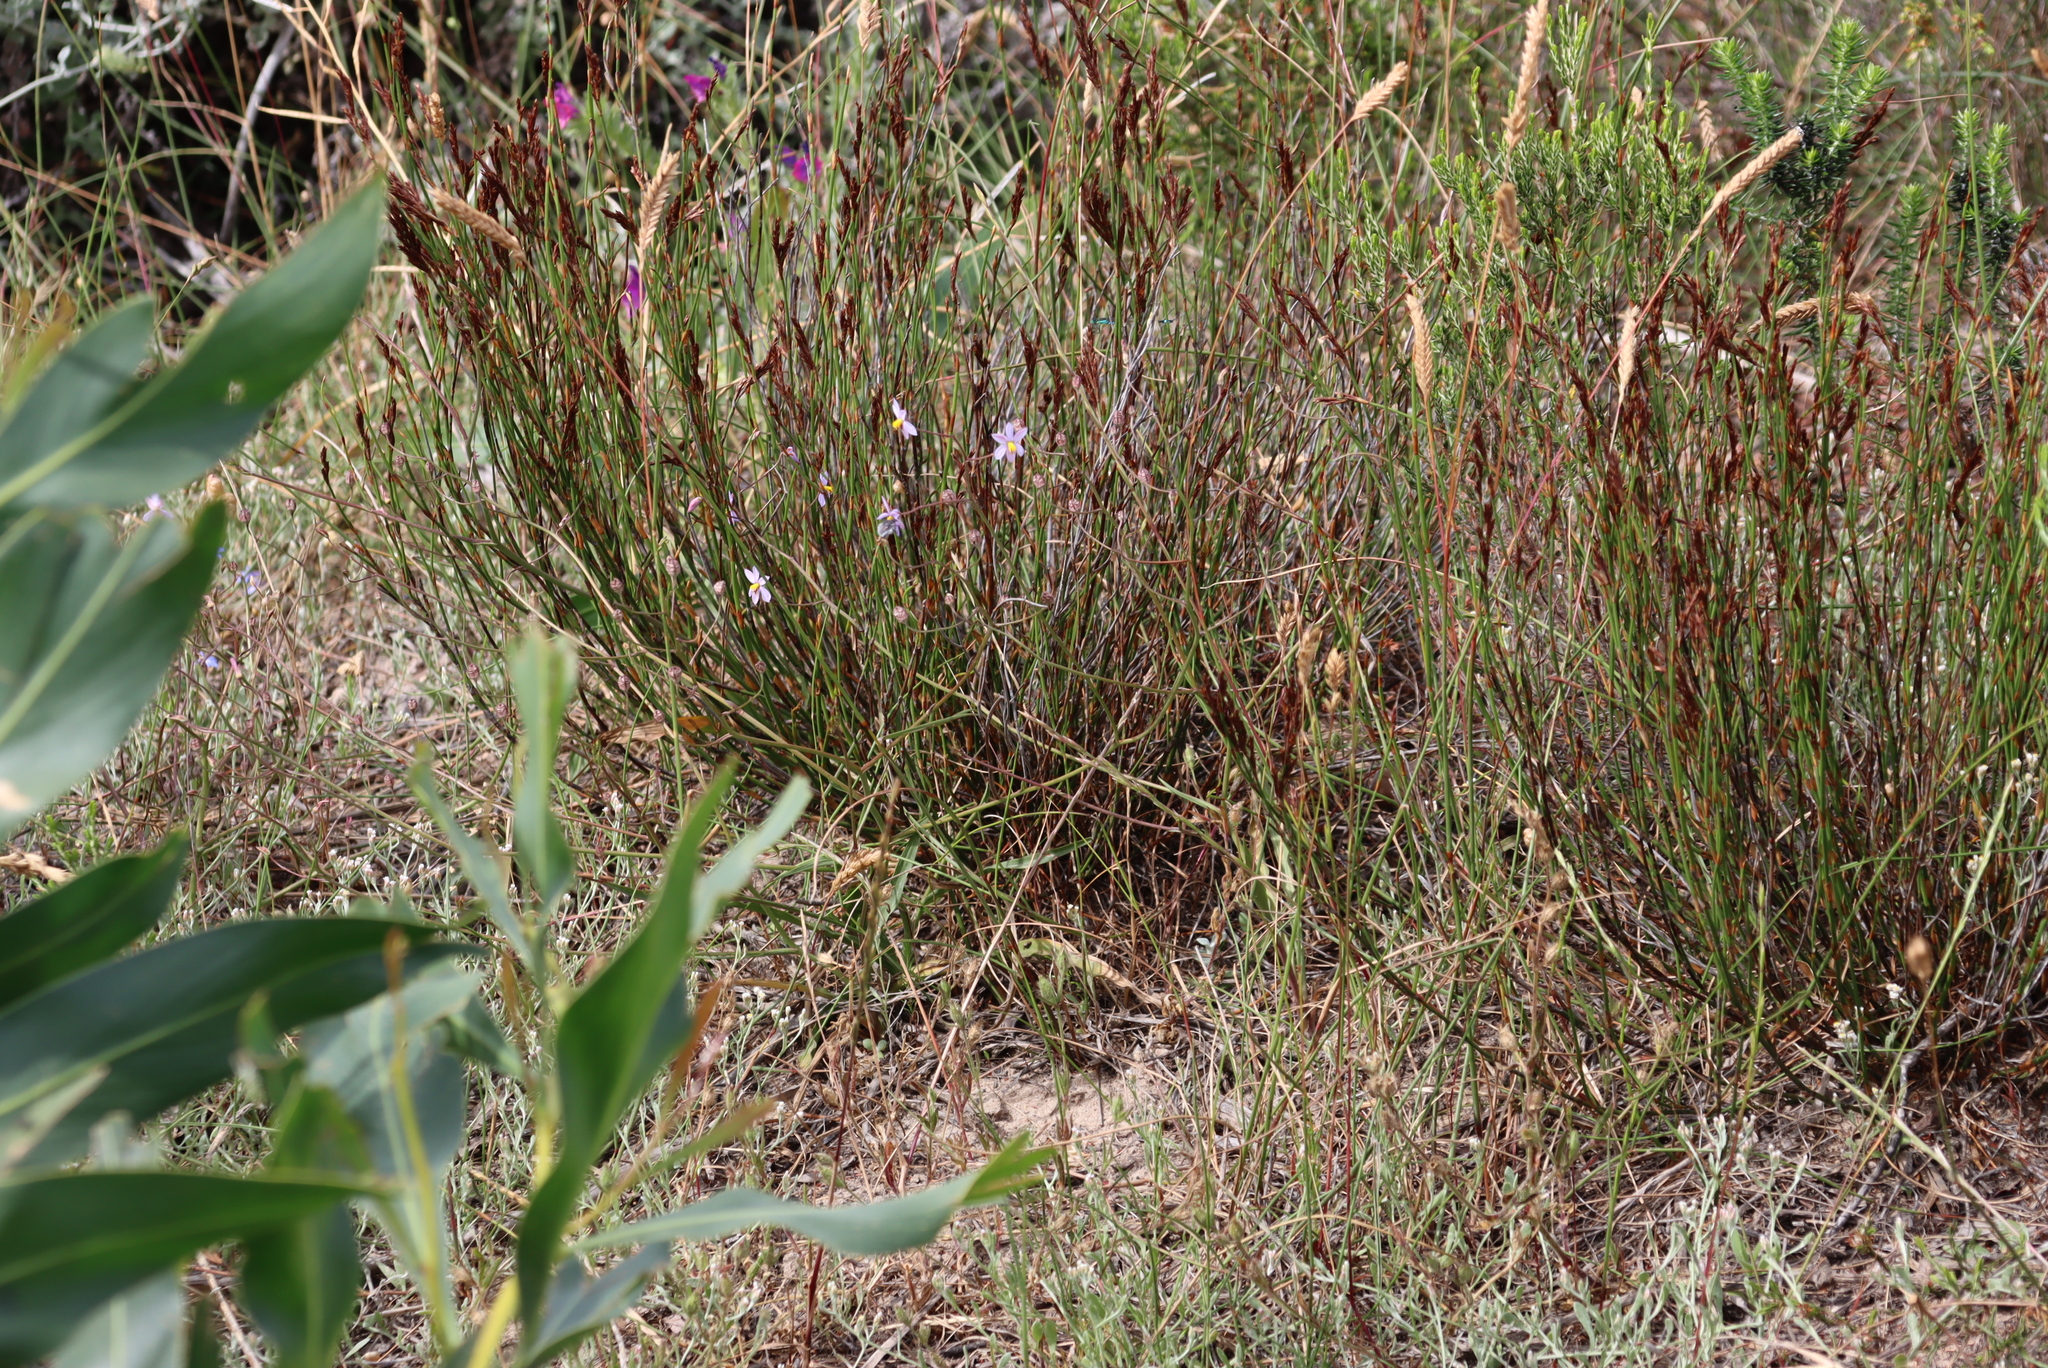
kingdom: Plantae
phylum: Tracheophyta
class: Liliopsida
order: Asparagales
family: Tecophilaeaceae
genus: Cyanella
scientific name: Cyanella hyacinthoides
